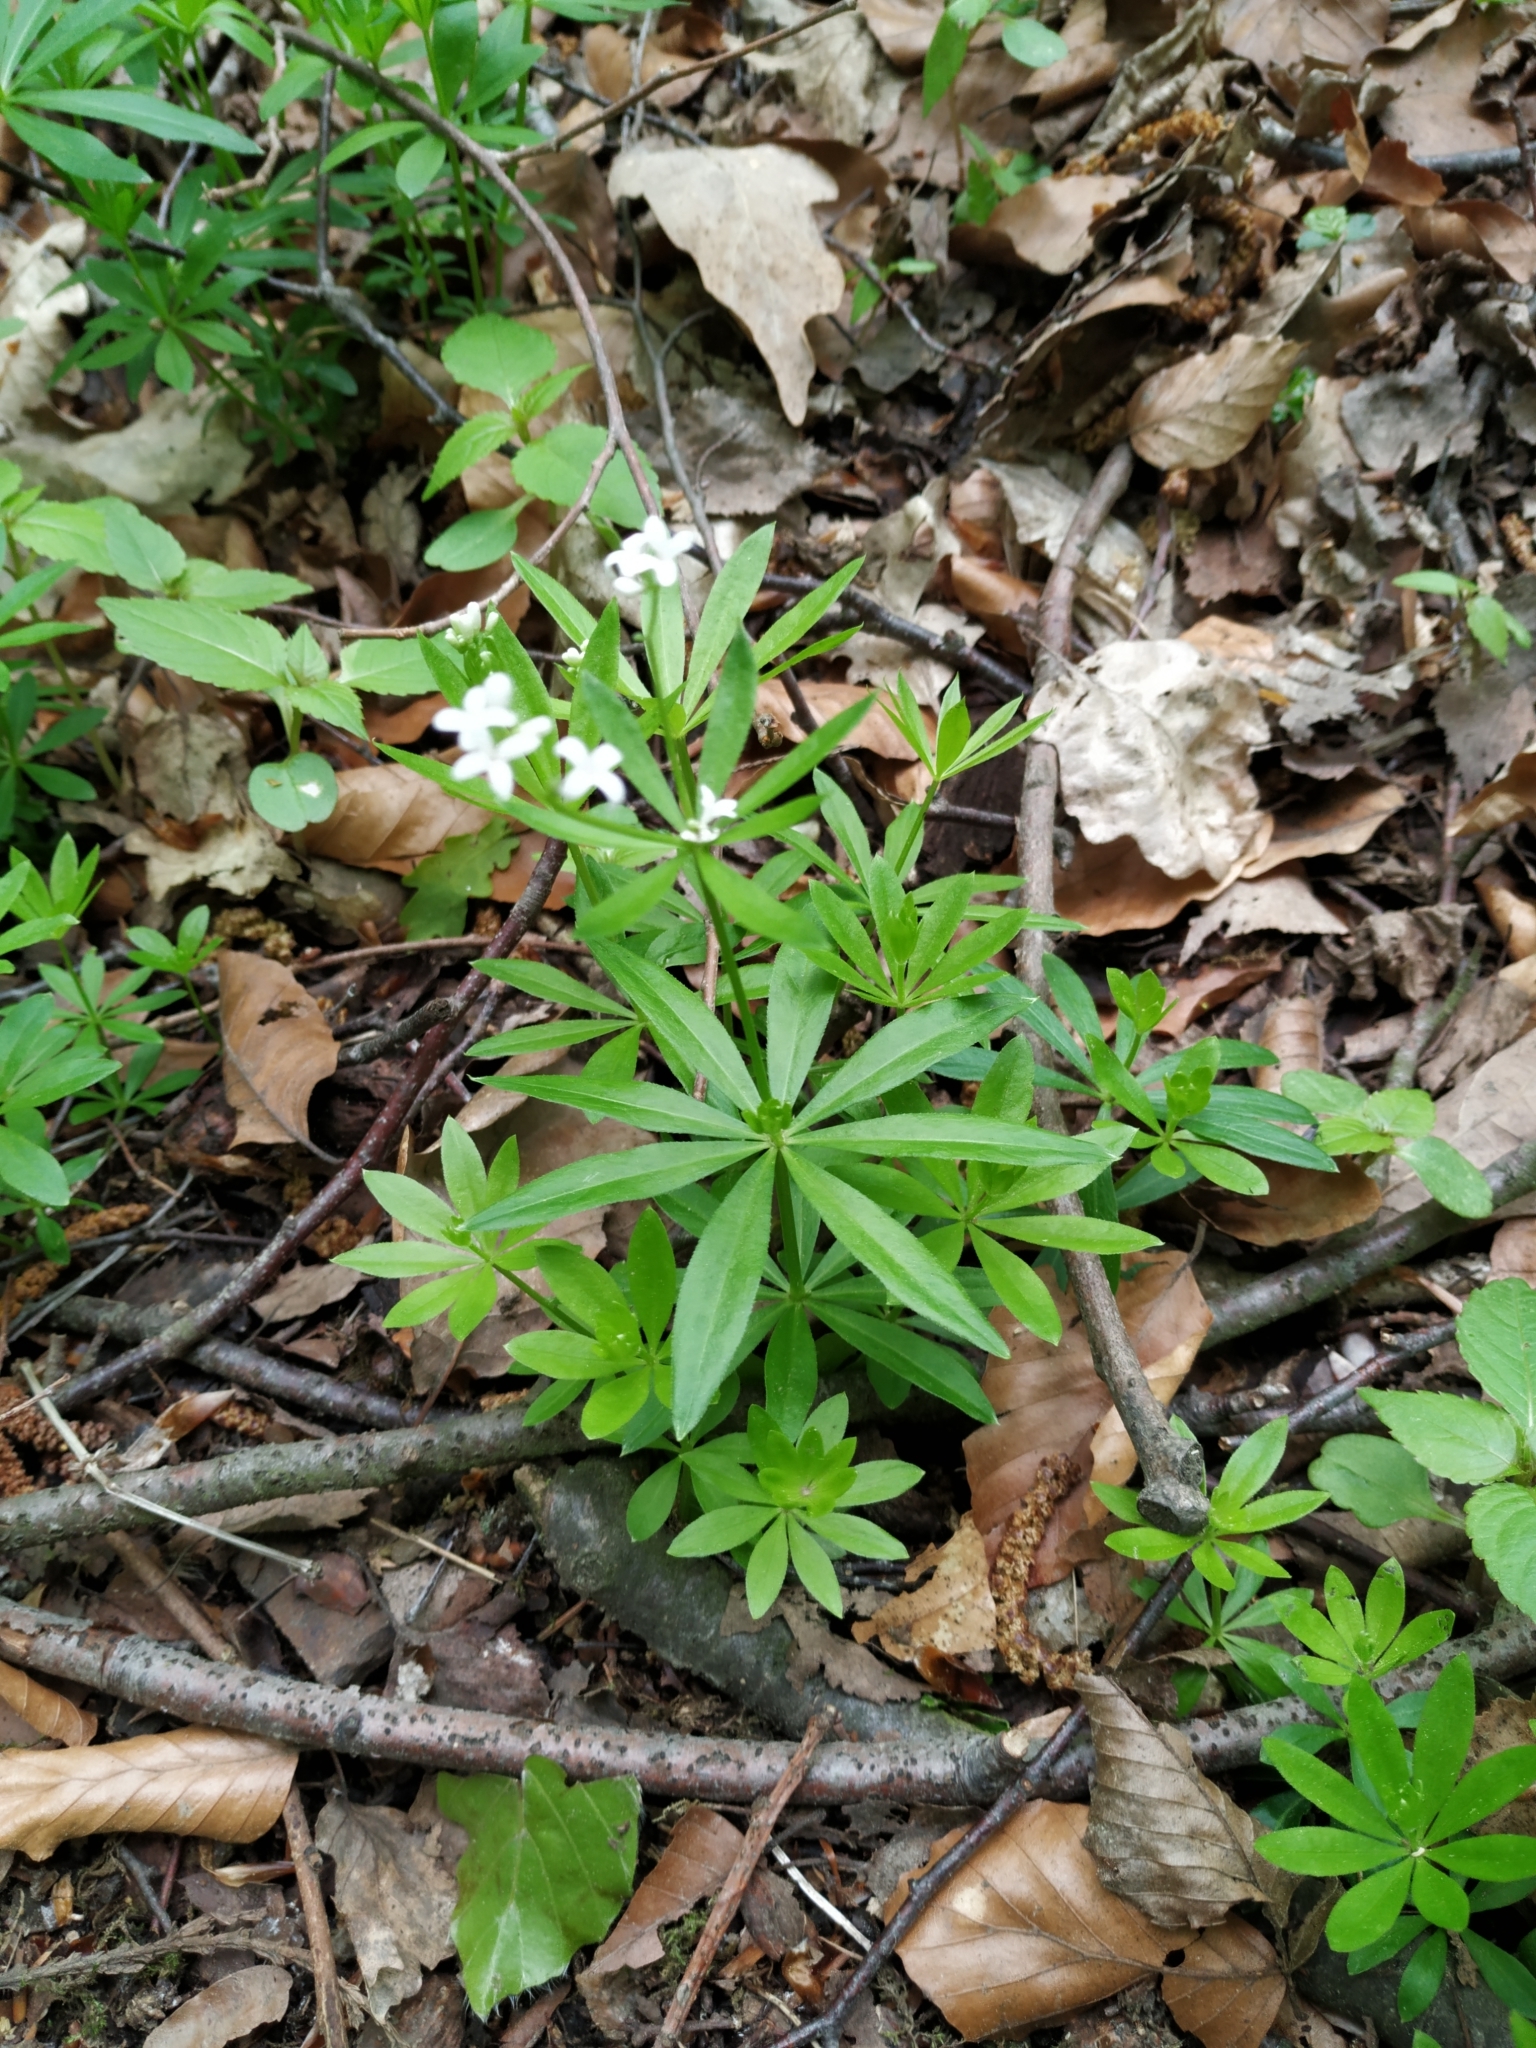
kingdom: Plantae
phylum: Tracheophyta
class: Magnoliopsida
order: Gentianales
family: Rubiaceae
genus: Galium
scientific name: Galium odoratum
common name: Sweet woodruff
